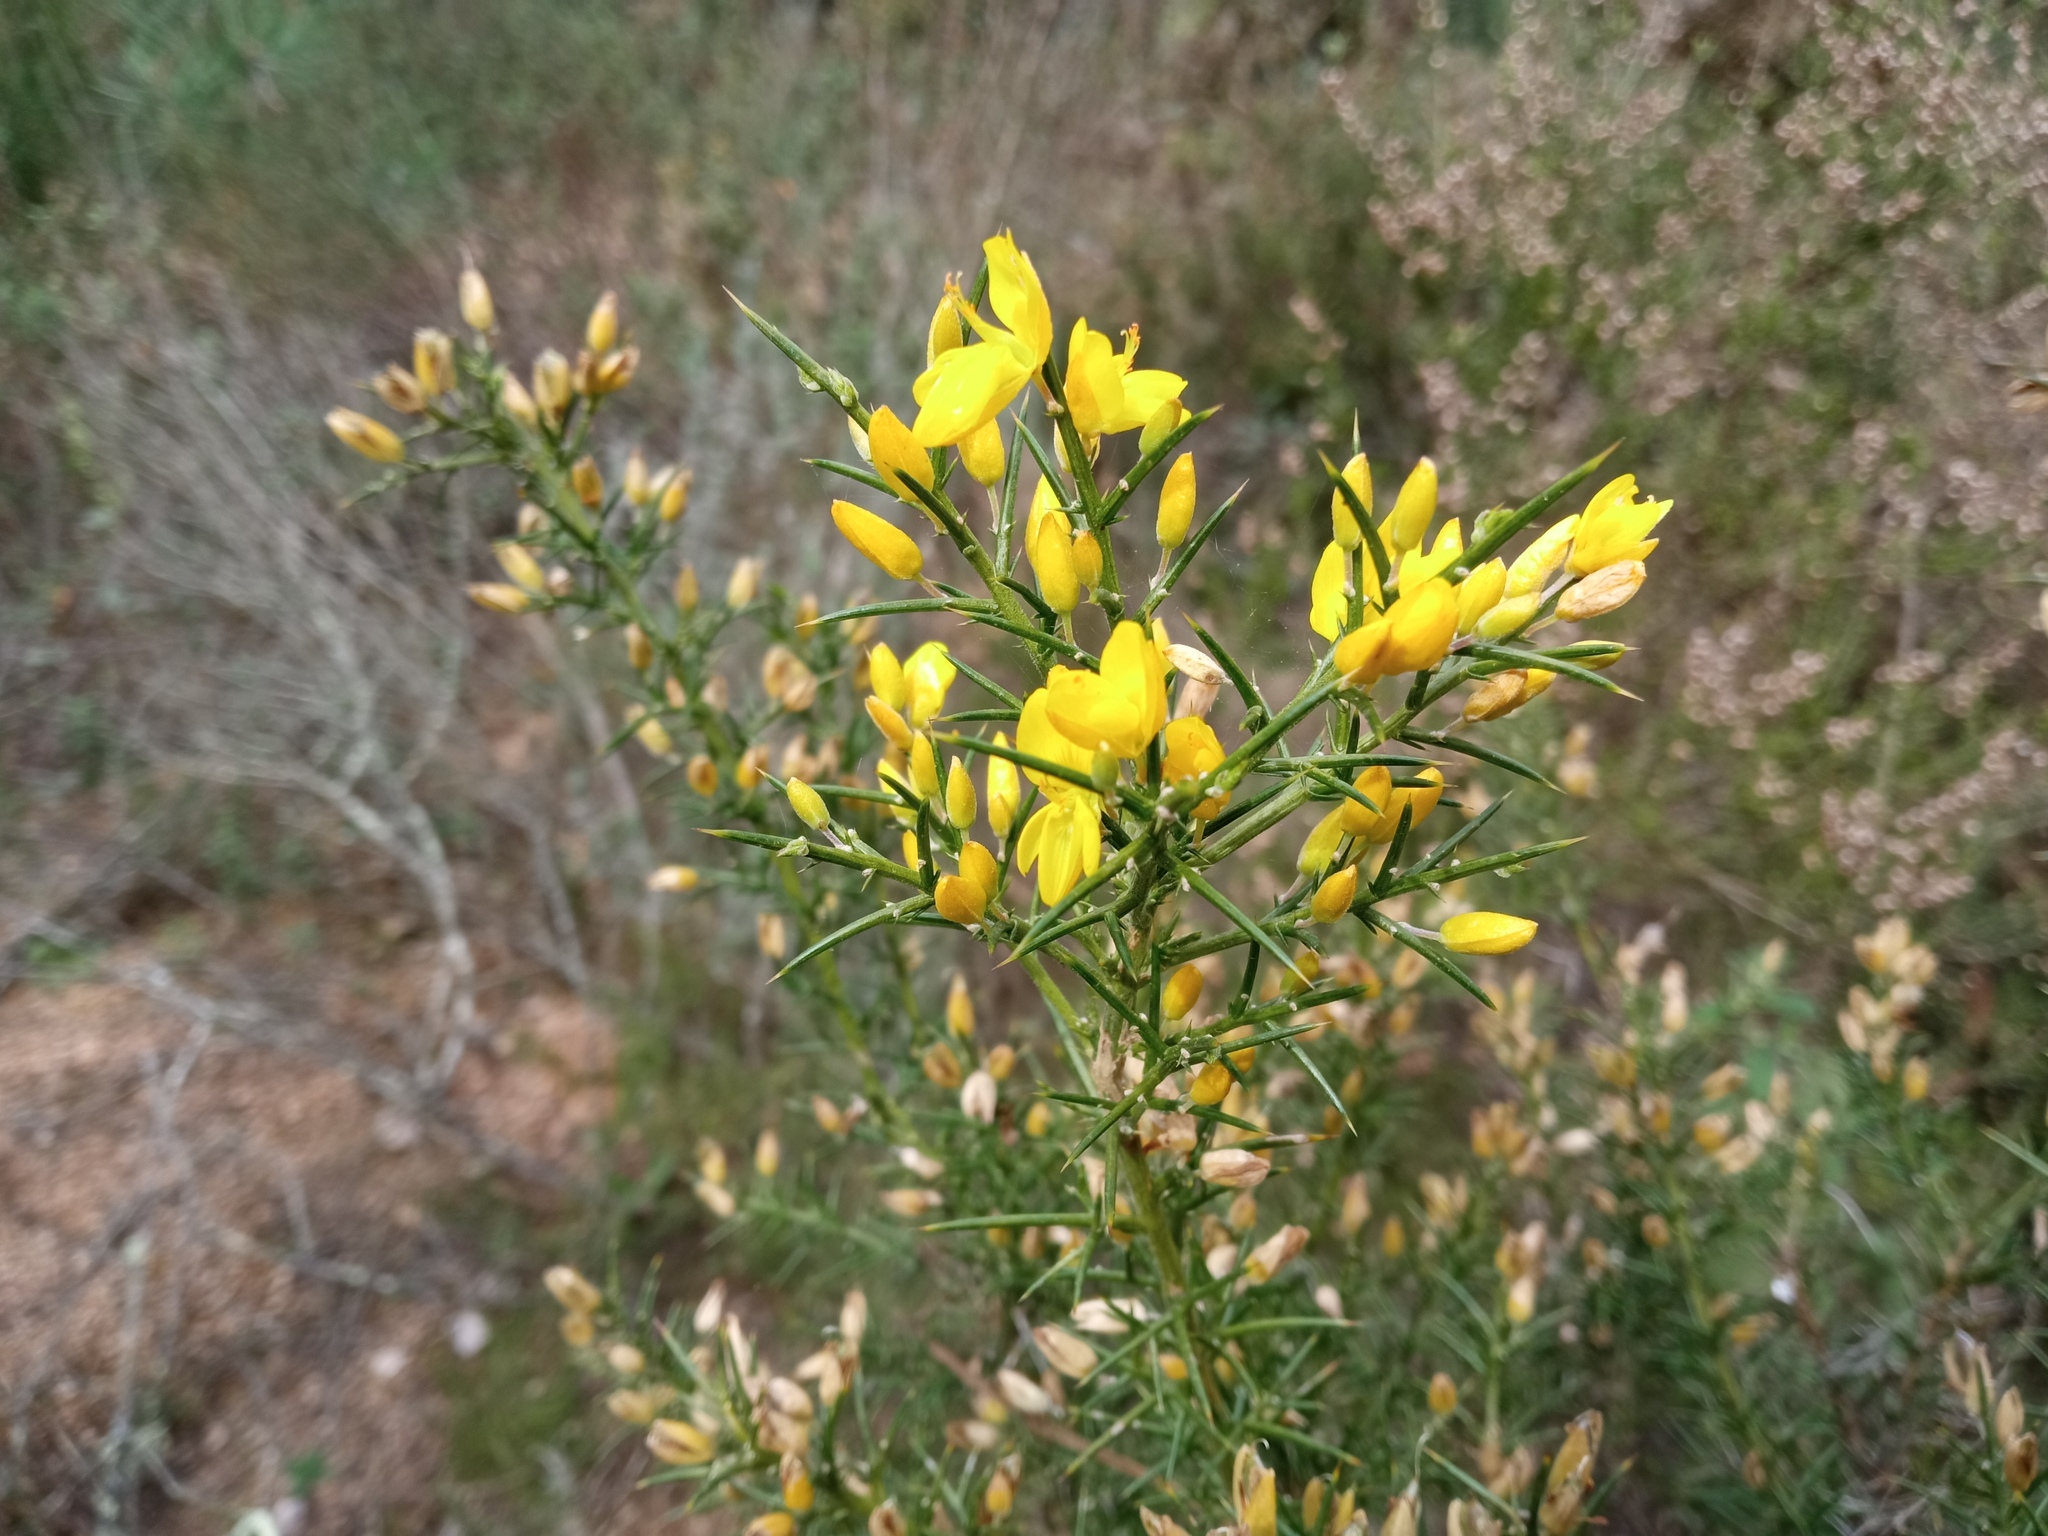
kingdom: Plantae
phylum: Tracheophyta
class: Magnoliopsida
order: Fabales
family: Fabaceae
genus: Ulex
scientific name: Ulex parviflorus
